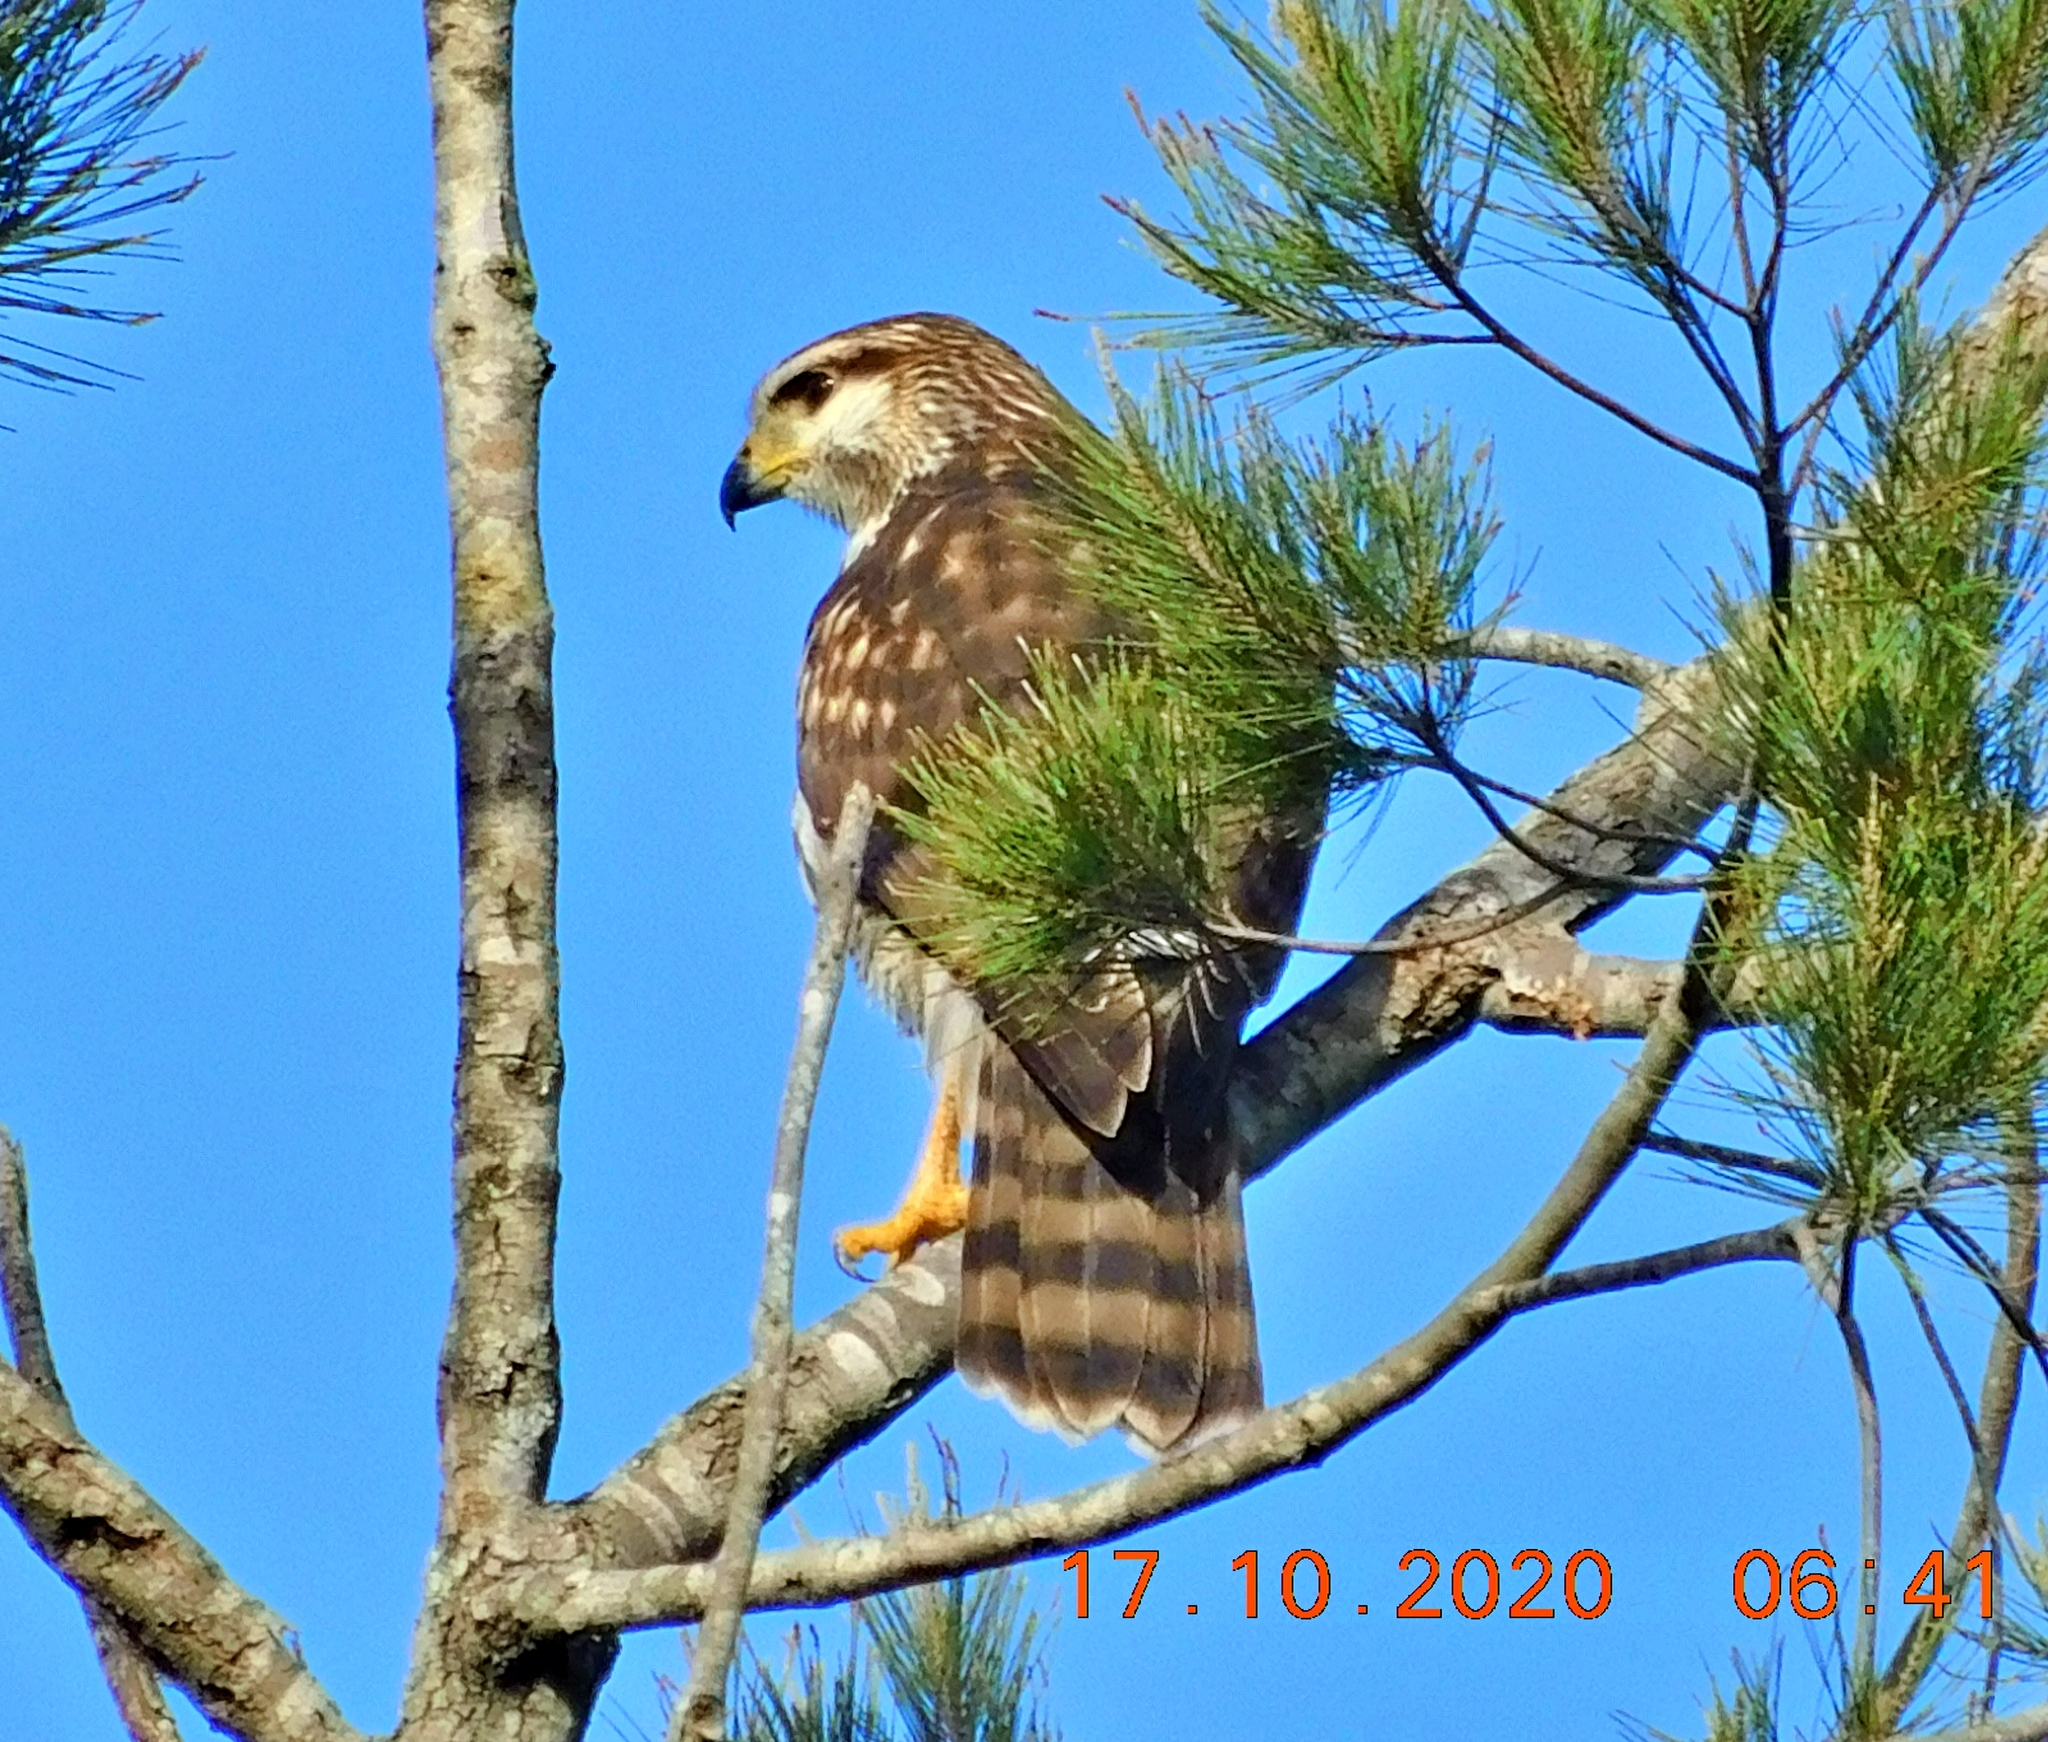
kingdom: Animalia
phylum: Chordata
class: Aves
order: Accipitriformes
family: Accipitridae
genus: Buteo
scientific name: Buteo nitidus
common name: Grey-lined hawk
